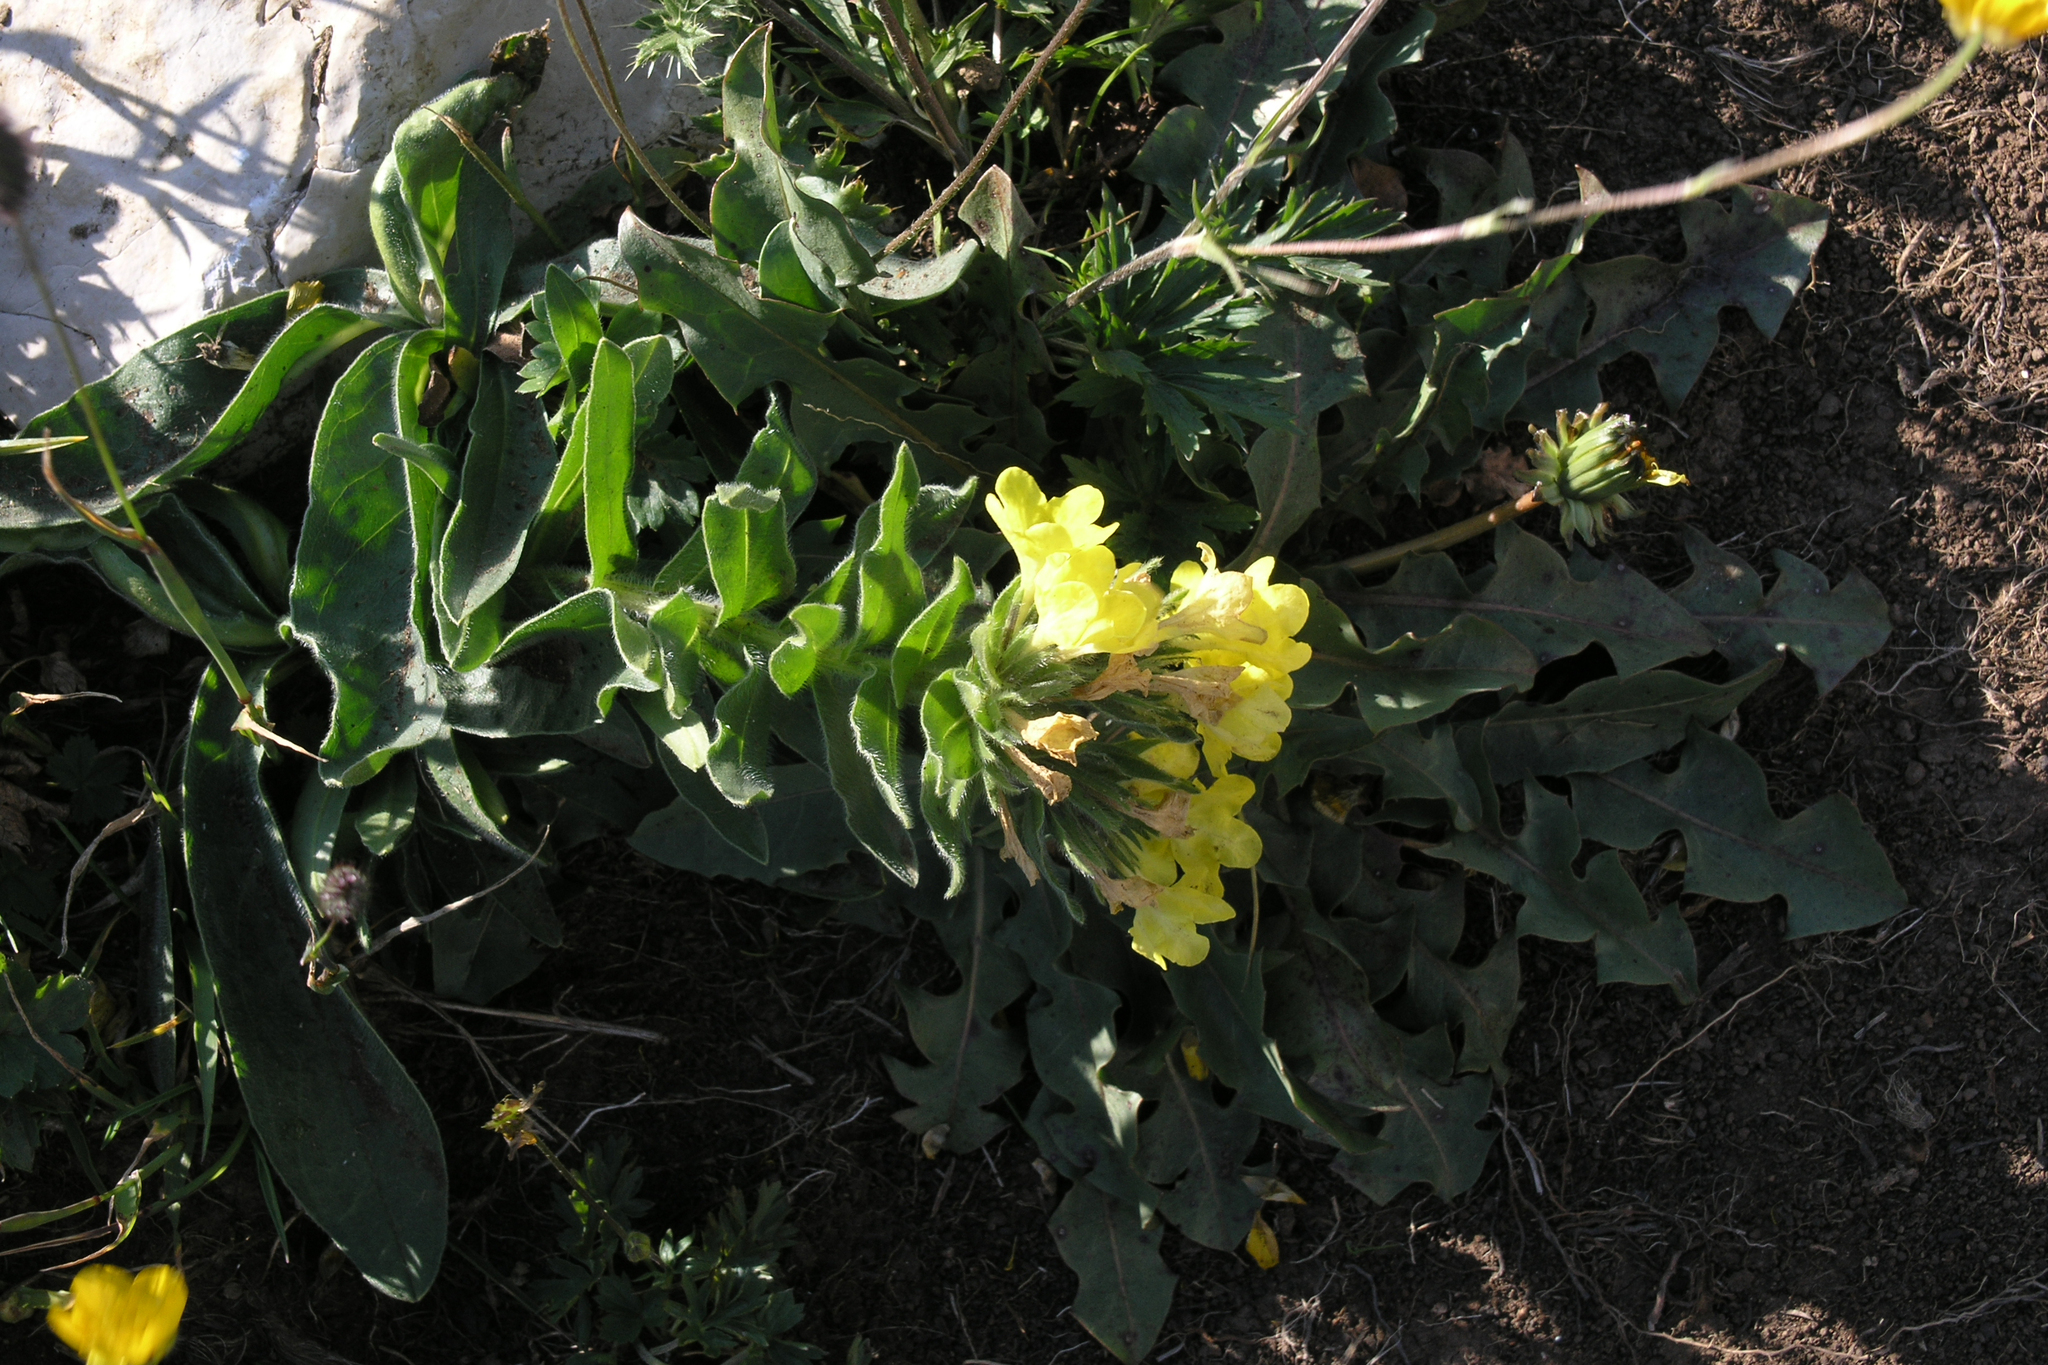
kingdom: Plantae
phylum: Tracheophyta
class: Magnoliopsida
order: Boraginales
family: Boraginaceae
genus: Huynhia
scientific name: Huynhia pulchra
